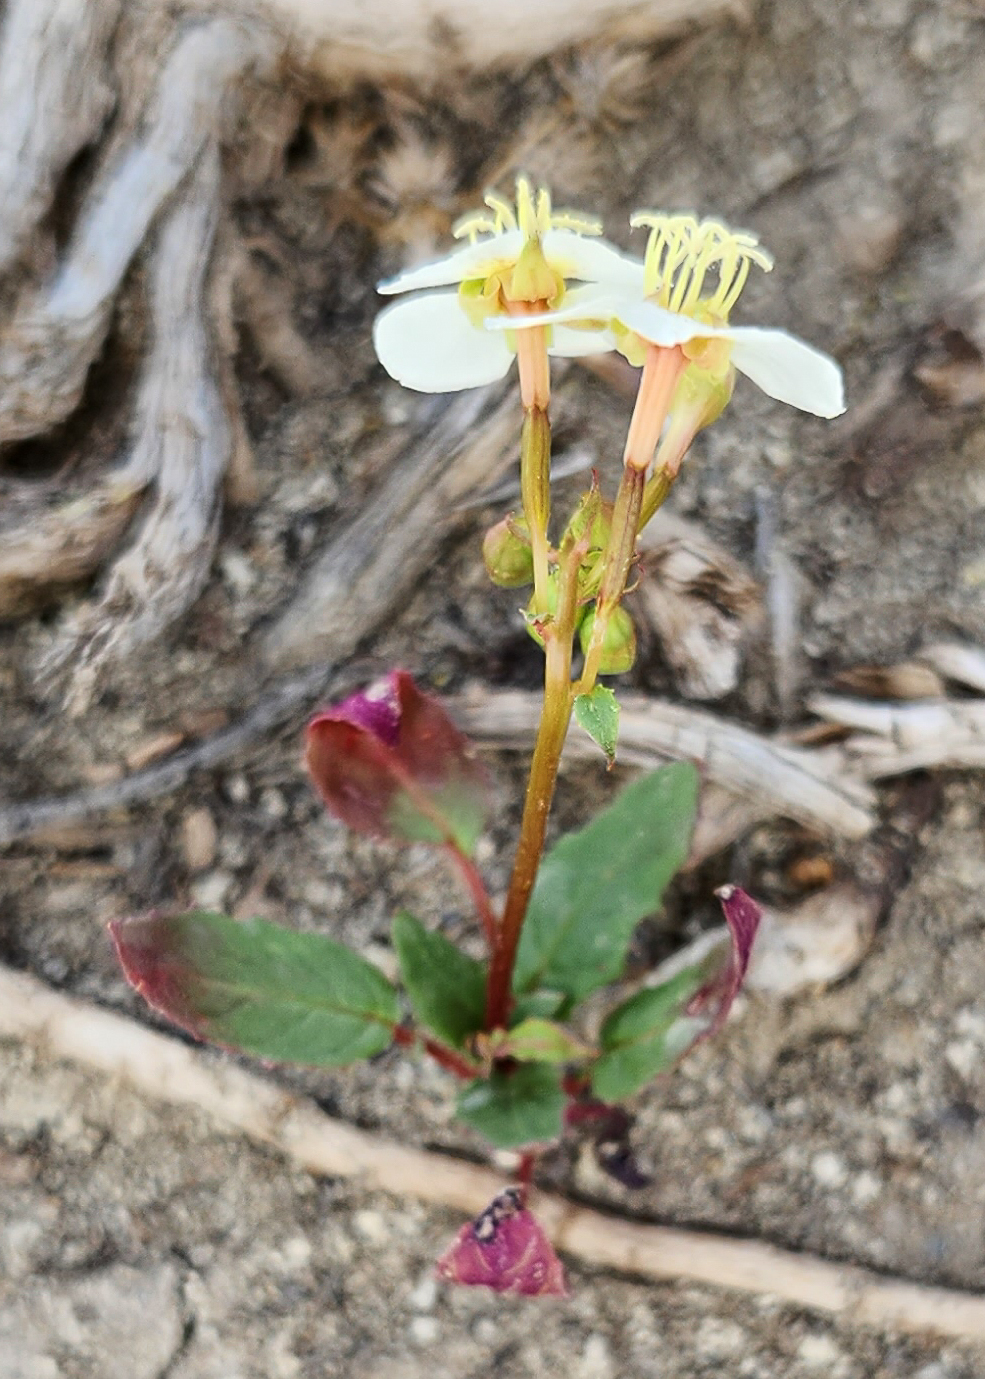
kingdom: Plantae
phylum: Tracheophyta
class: Magnoliopsida
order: Myrtales
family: Onagraceae
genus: Chylismia
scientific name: Chylismia claviformis
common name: Browneyes
